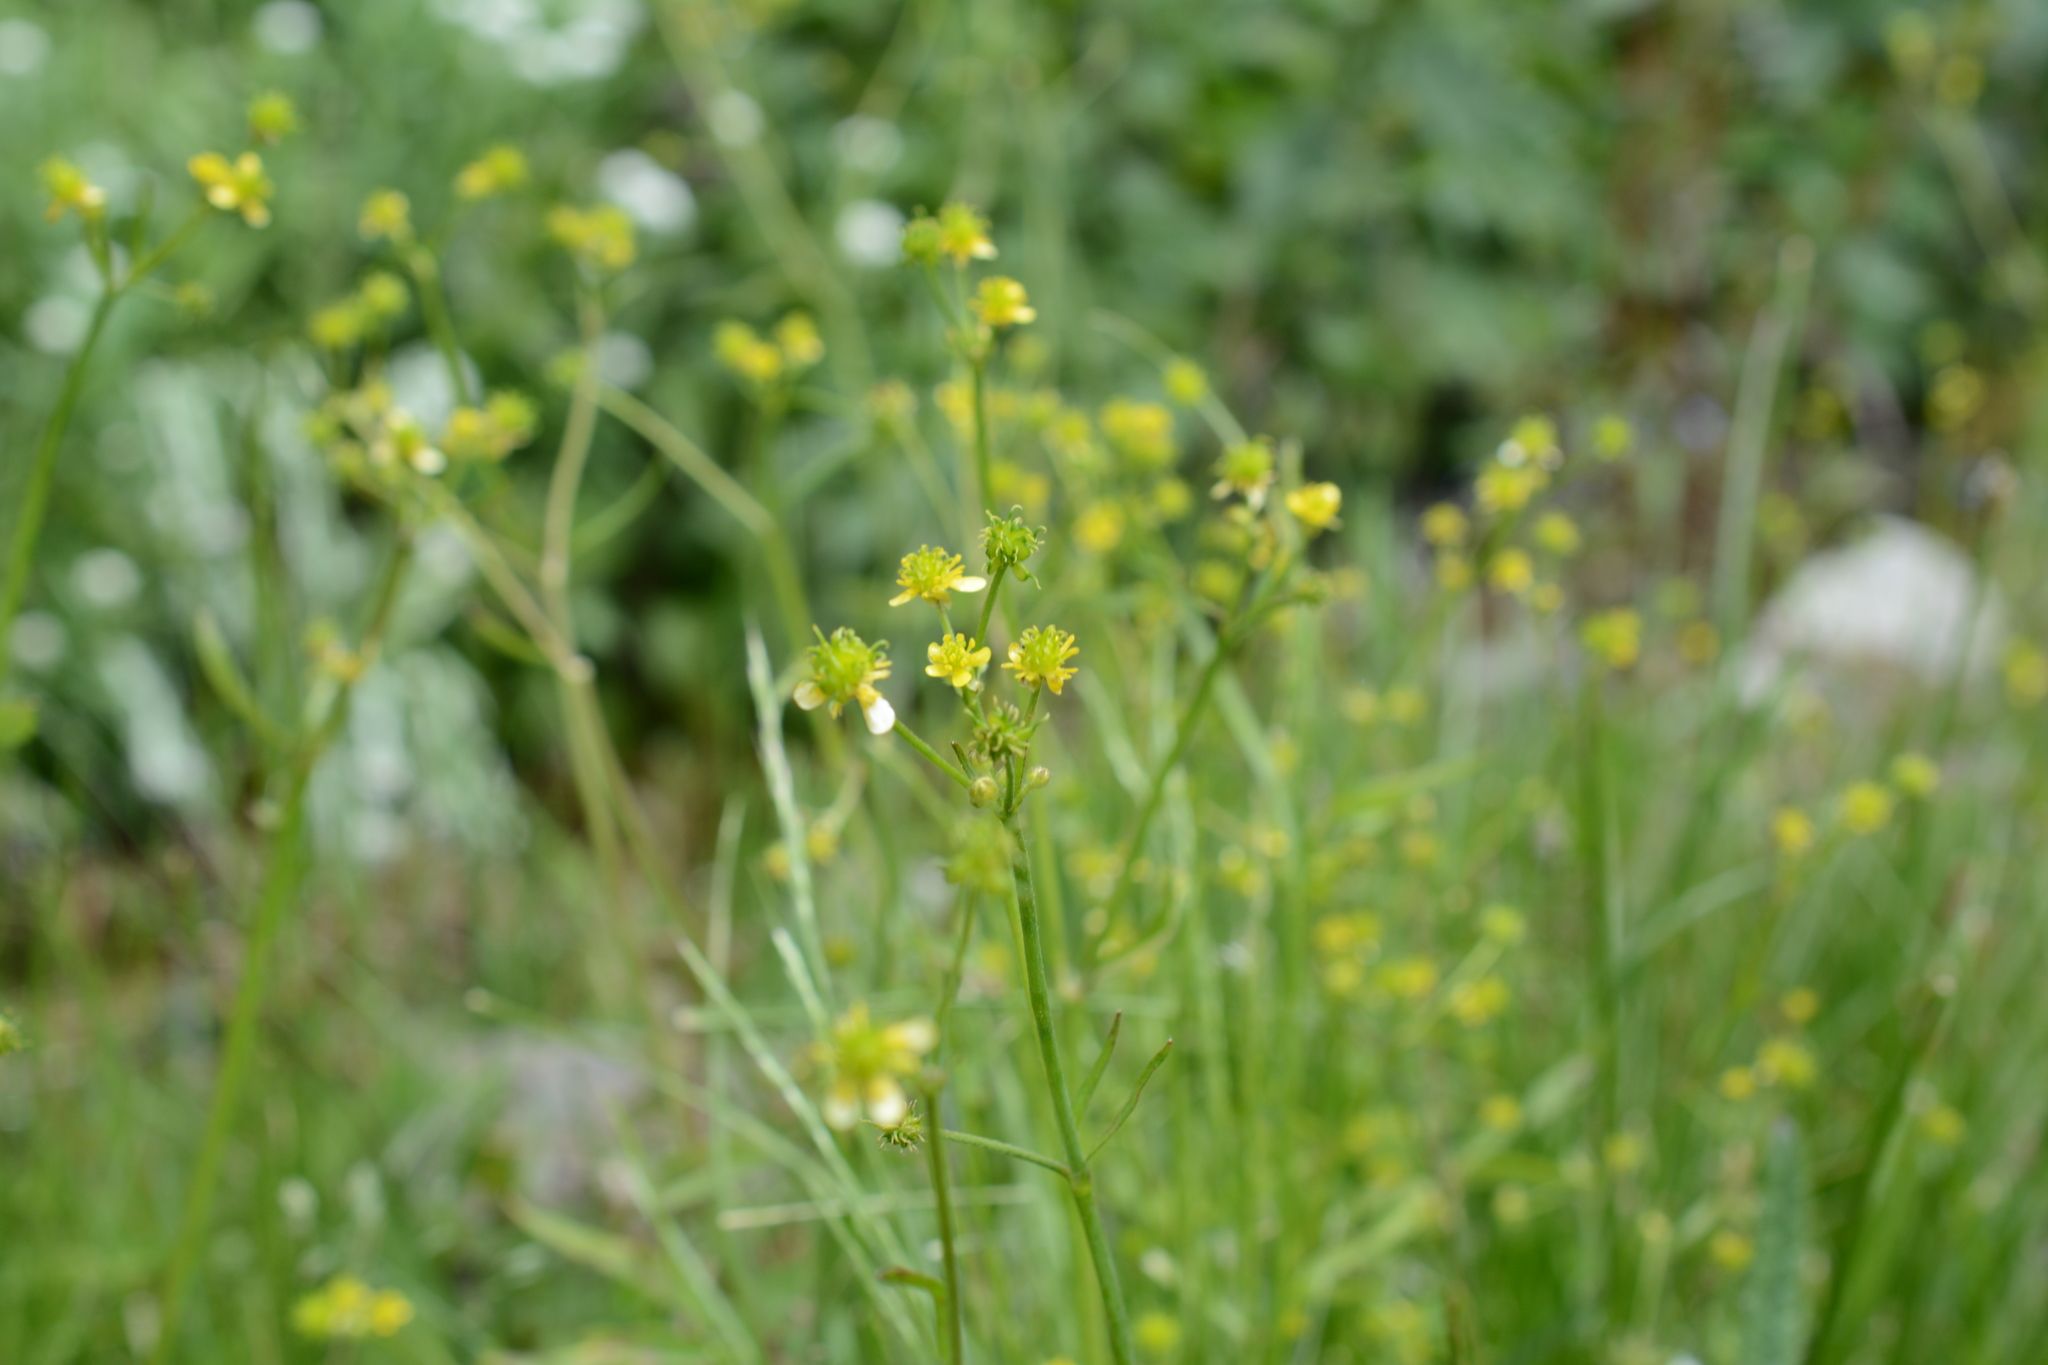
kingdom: Plantae
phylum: Tracheophyta
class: Magnoliopsida
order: Ranunculales
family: Ranunculaceae
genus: Ranunculus
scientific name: Ranunculus uncinatus
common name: Little buttercup
